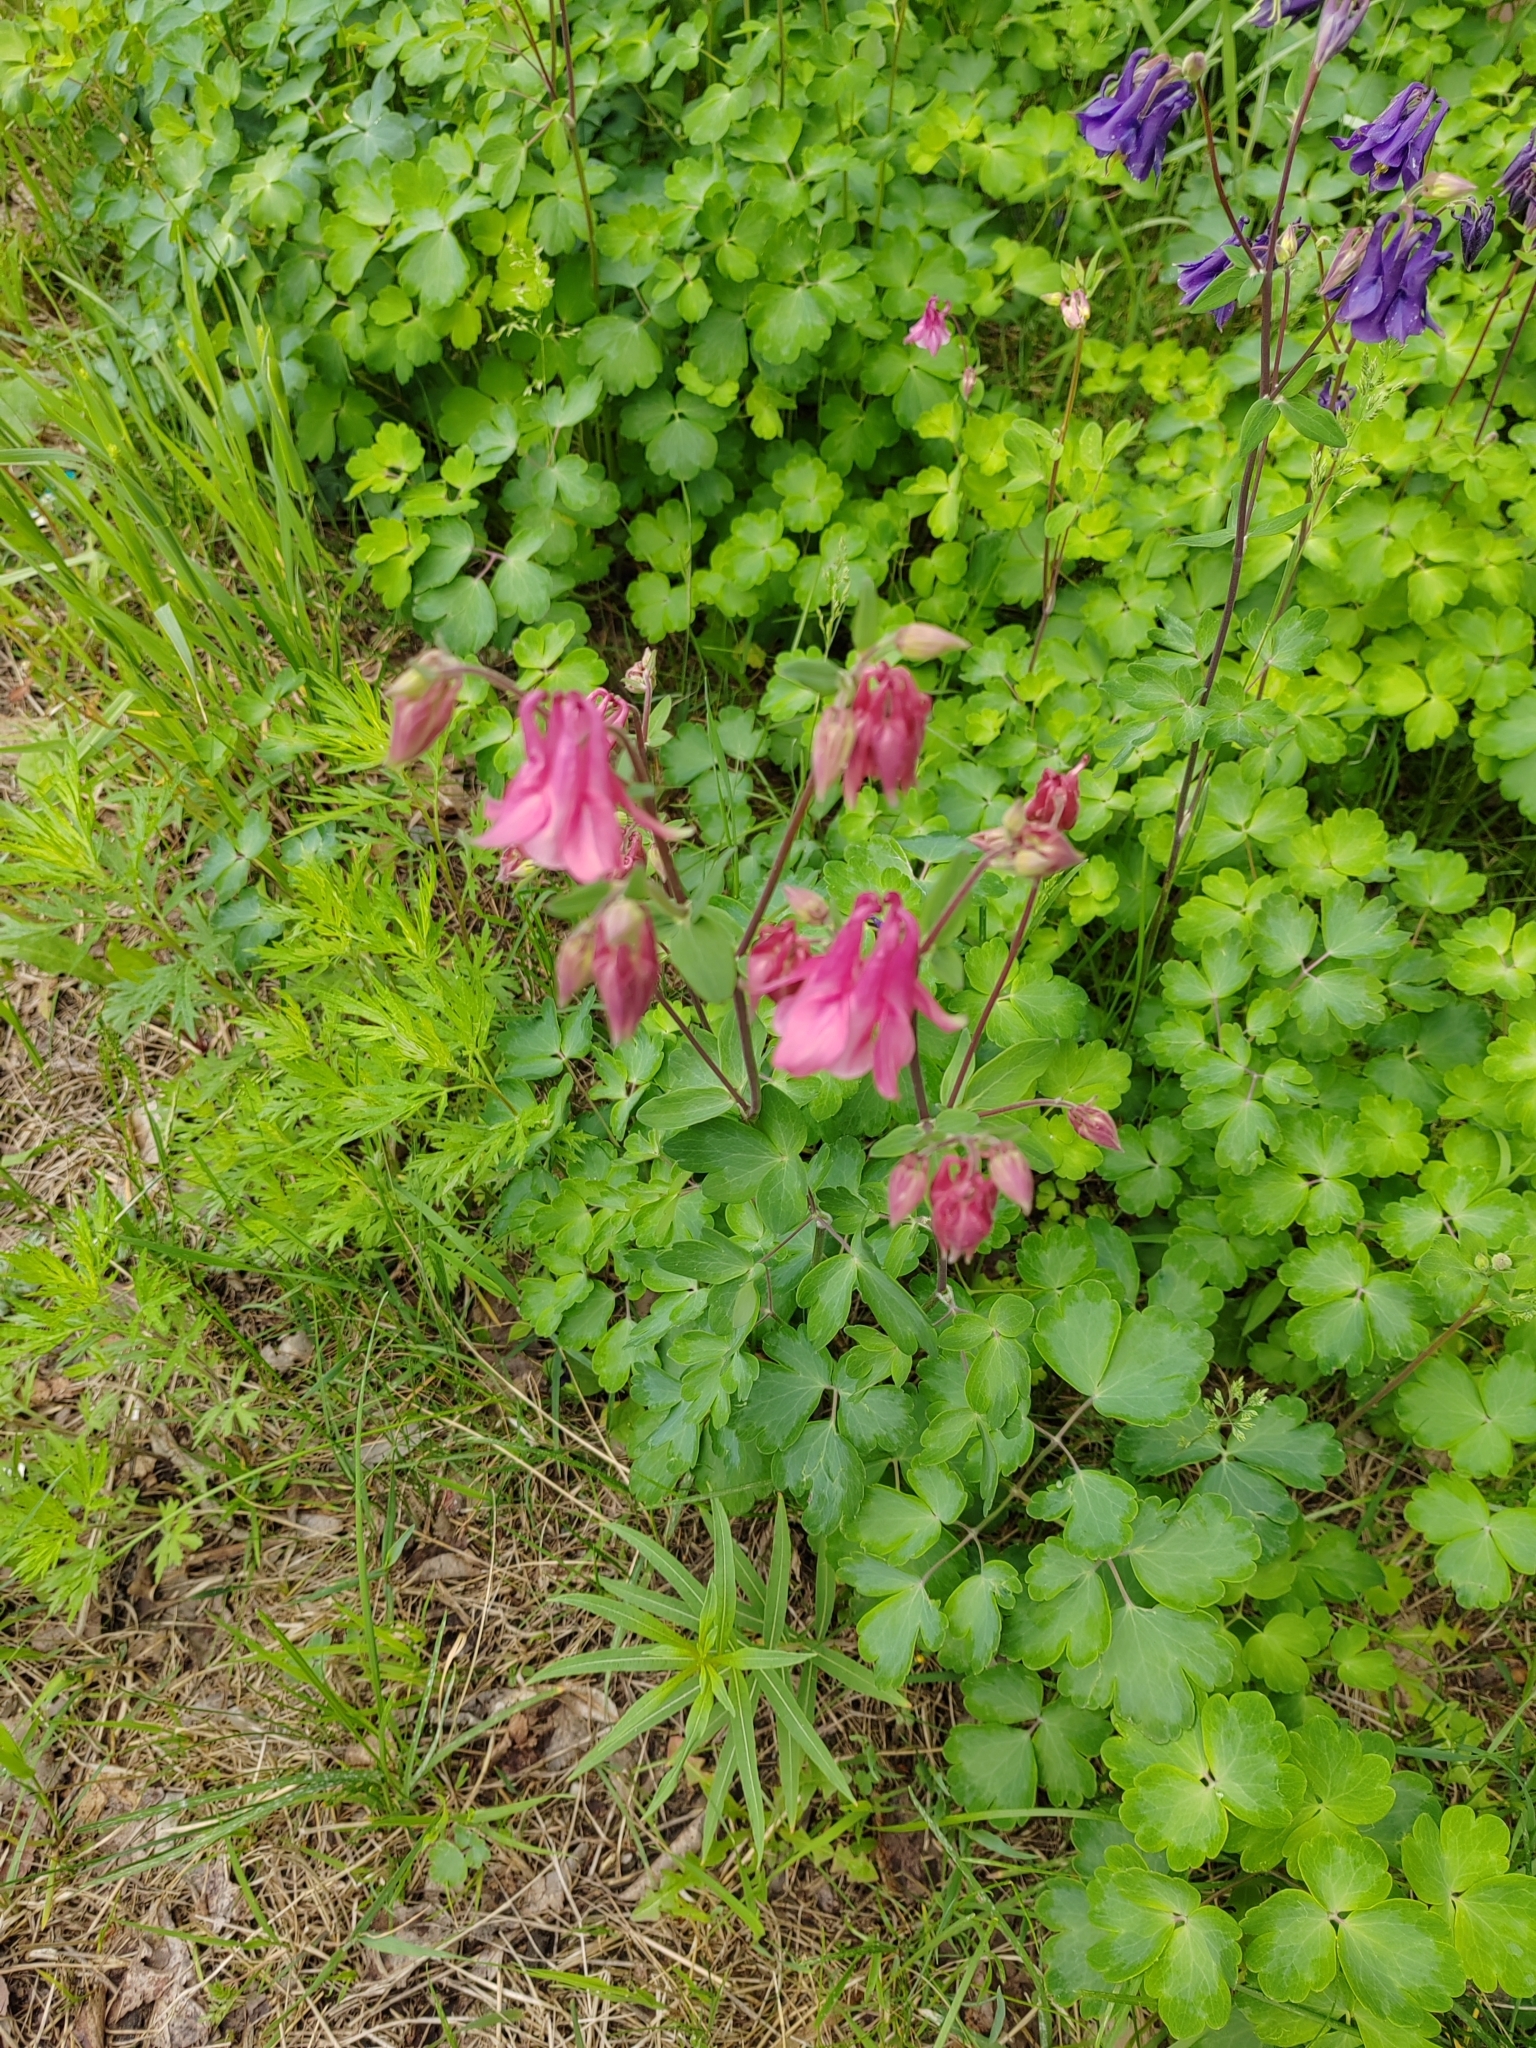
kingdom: Plantae
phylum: Tracheophyta
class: Magnoliopsida
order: Ranunculales
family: Ranunculaceae
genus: Aquilegia
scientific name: Aquilegia vulgaris
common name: Columbine
